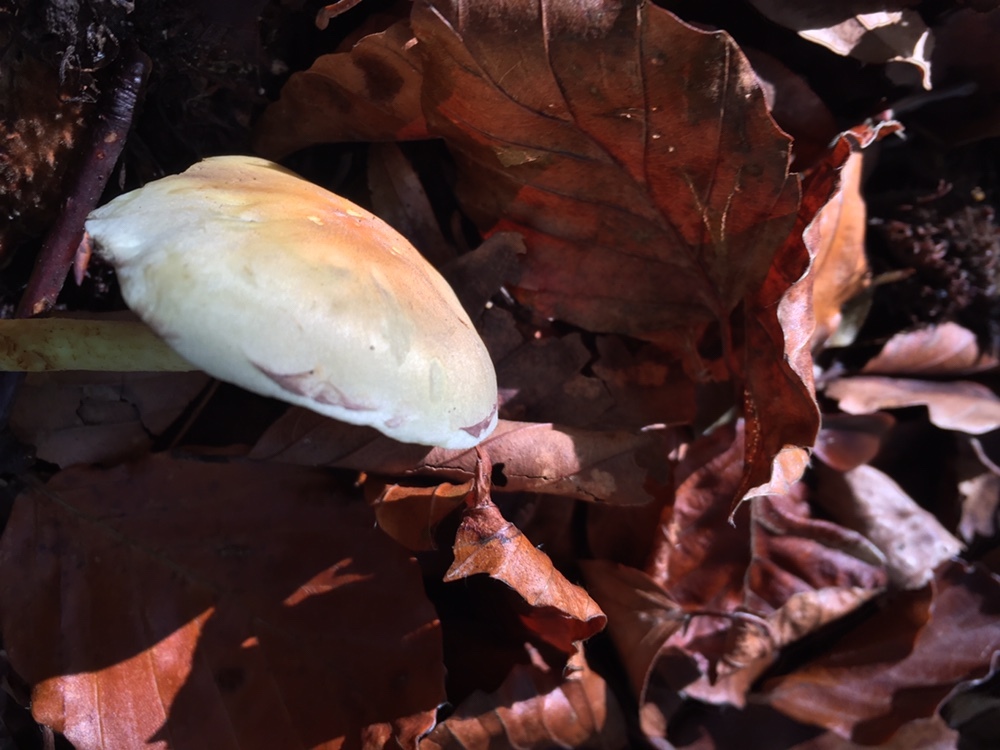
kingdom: Fungi
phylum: Basidiomycota
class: Agaricomycetes
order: Agaricales
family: Strophariaceae
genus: Hypholoma
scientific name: Hypholoma fasciculare
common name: Sulphur tuft
